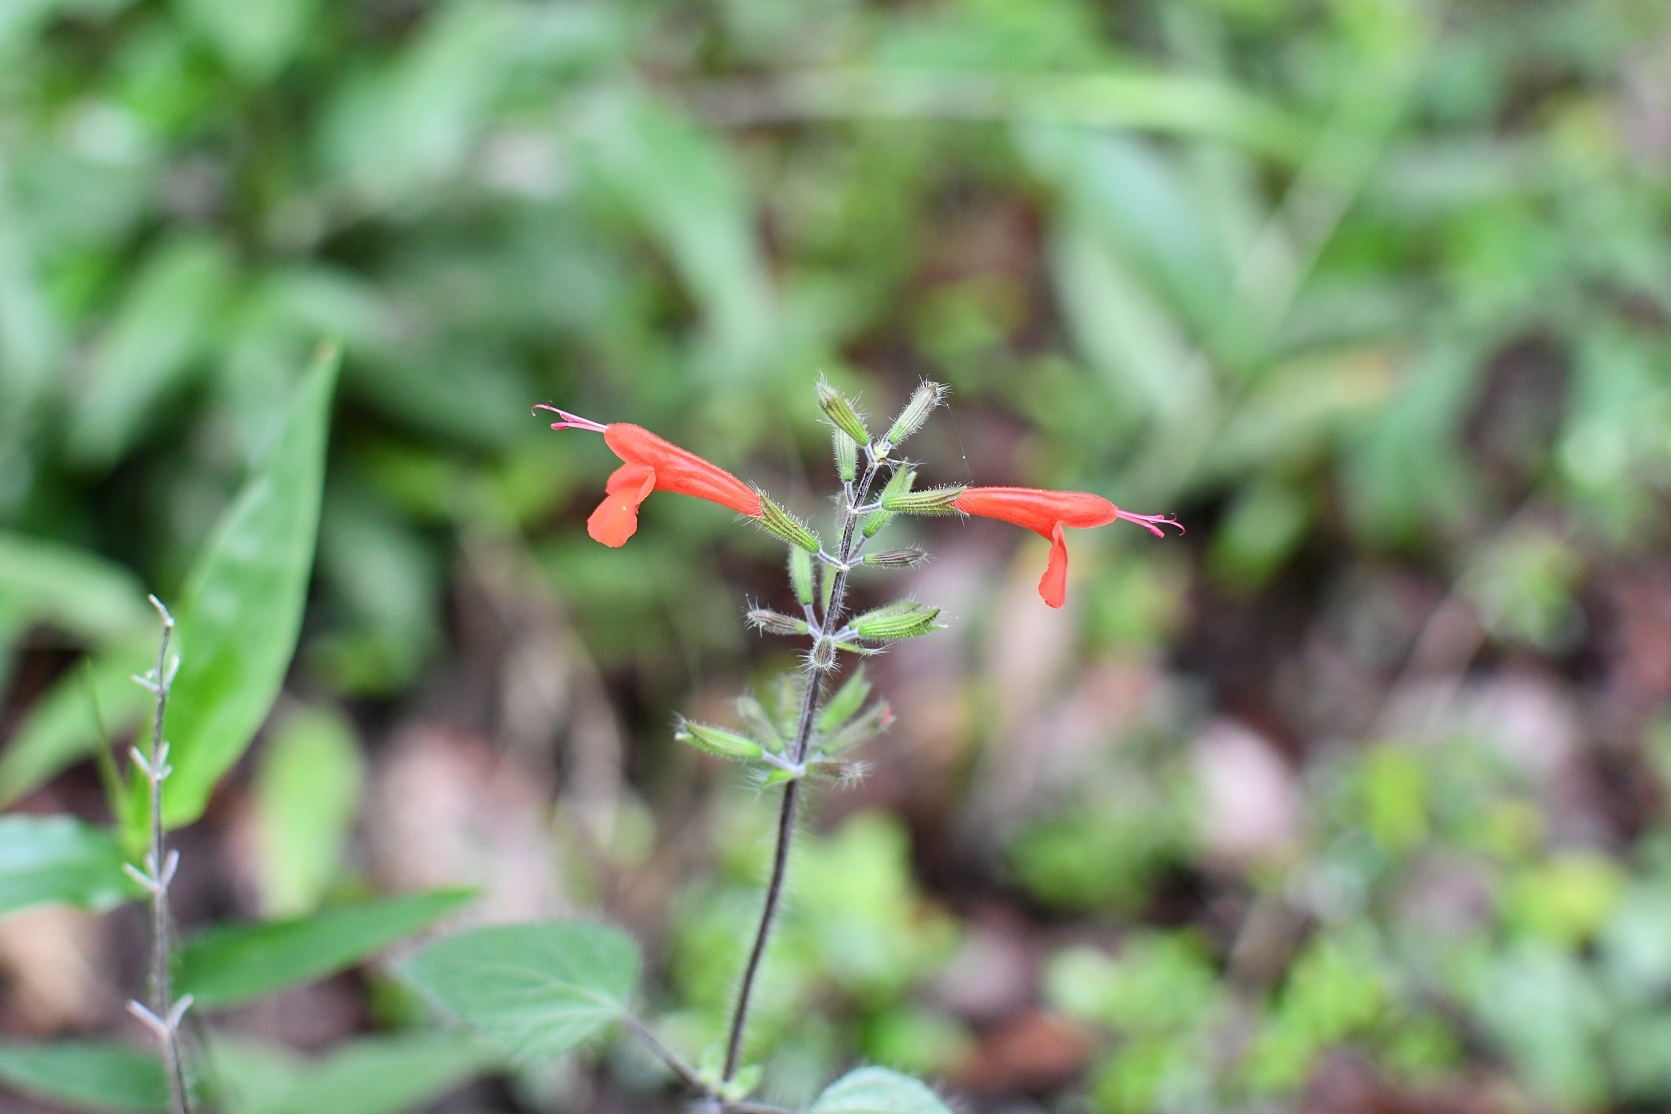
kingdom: Plantae
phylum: Tracheophyta
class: Magnoliopsida
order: Lamiales
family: Lamiaceae
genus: Salvia
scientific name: Salvia coccinea
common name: Blood sage
